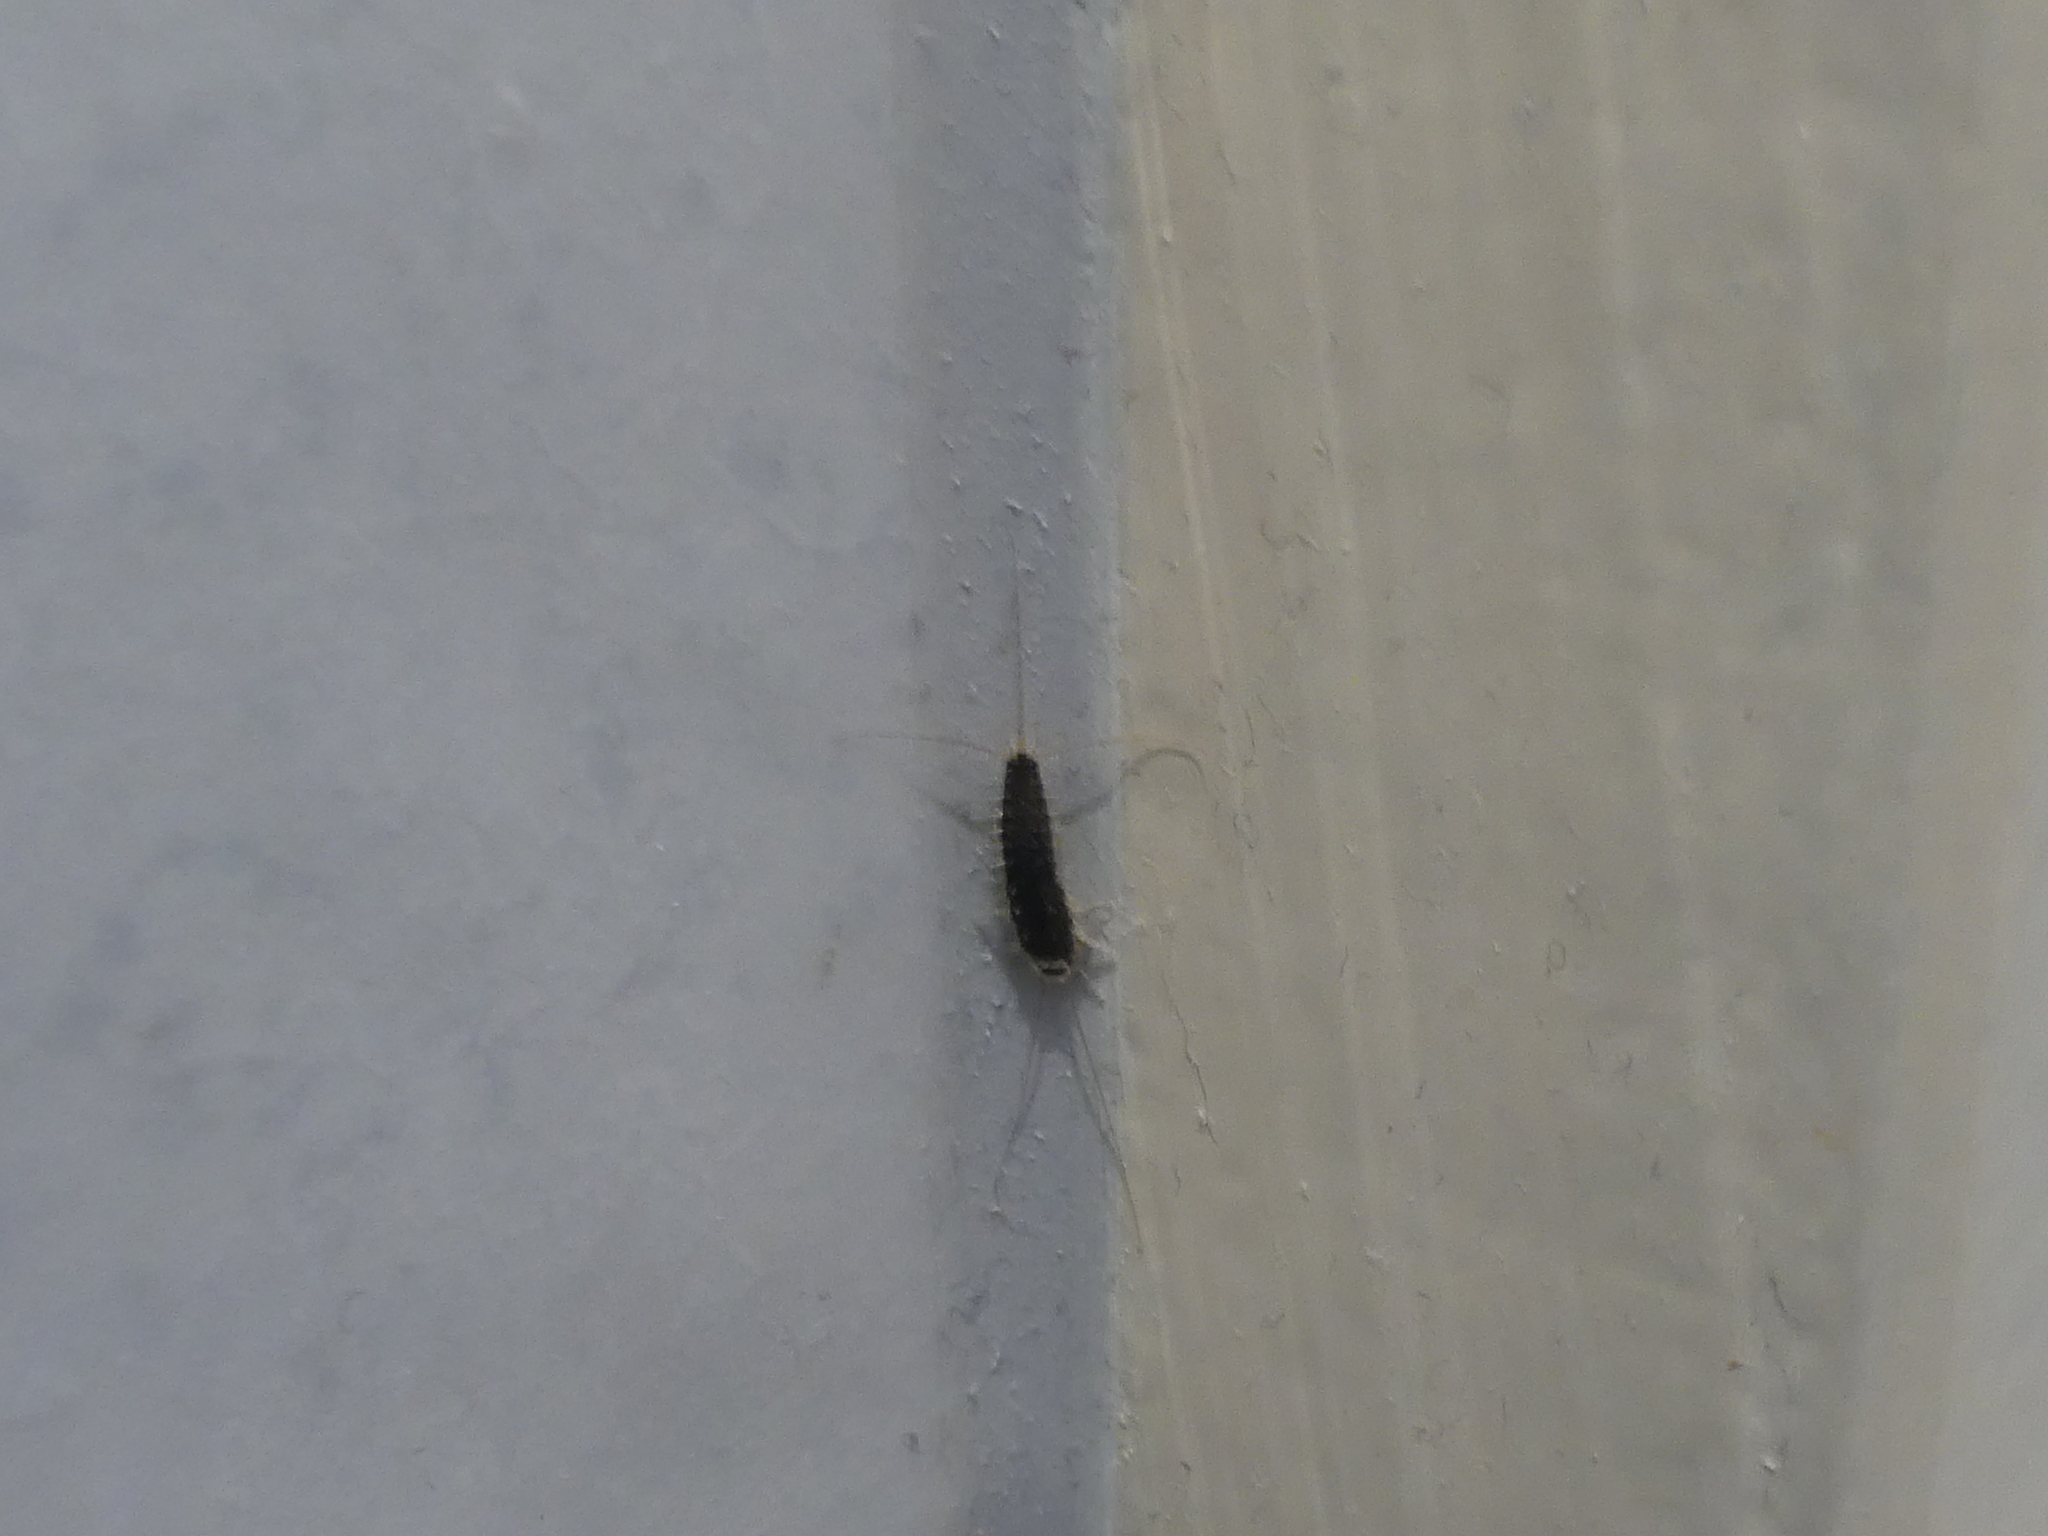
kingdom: Animalia
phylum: Arthropoda
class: Insecta
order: Zygentoma
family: Lepismatidae
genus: Ctenolepisma
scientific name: Ctenolepisma longicaudatum
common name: Silverfish
